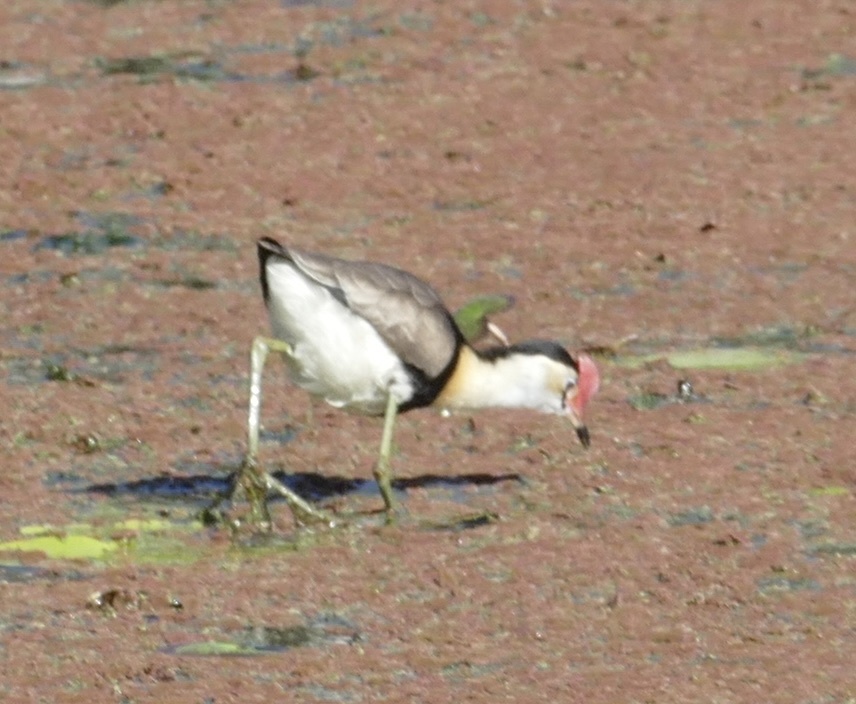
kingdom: Animalia
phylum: Chordata
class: Aves
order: Charadriiformes
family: Jacanidae
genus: Irediparra
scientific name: Irediparra gallinacea
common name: Comb-crested jacana
